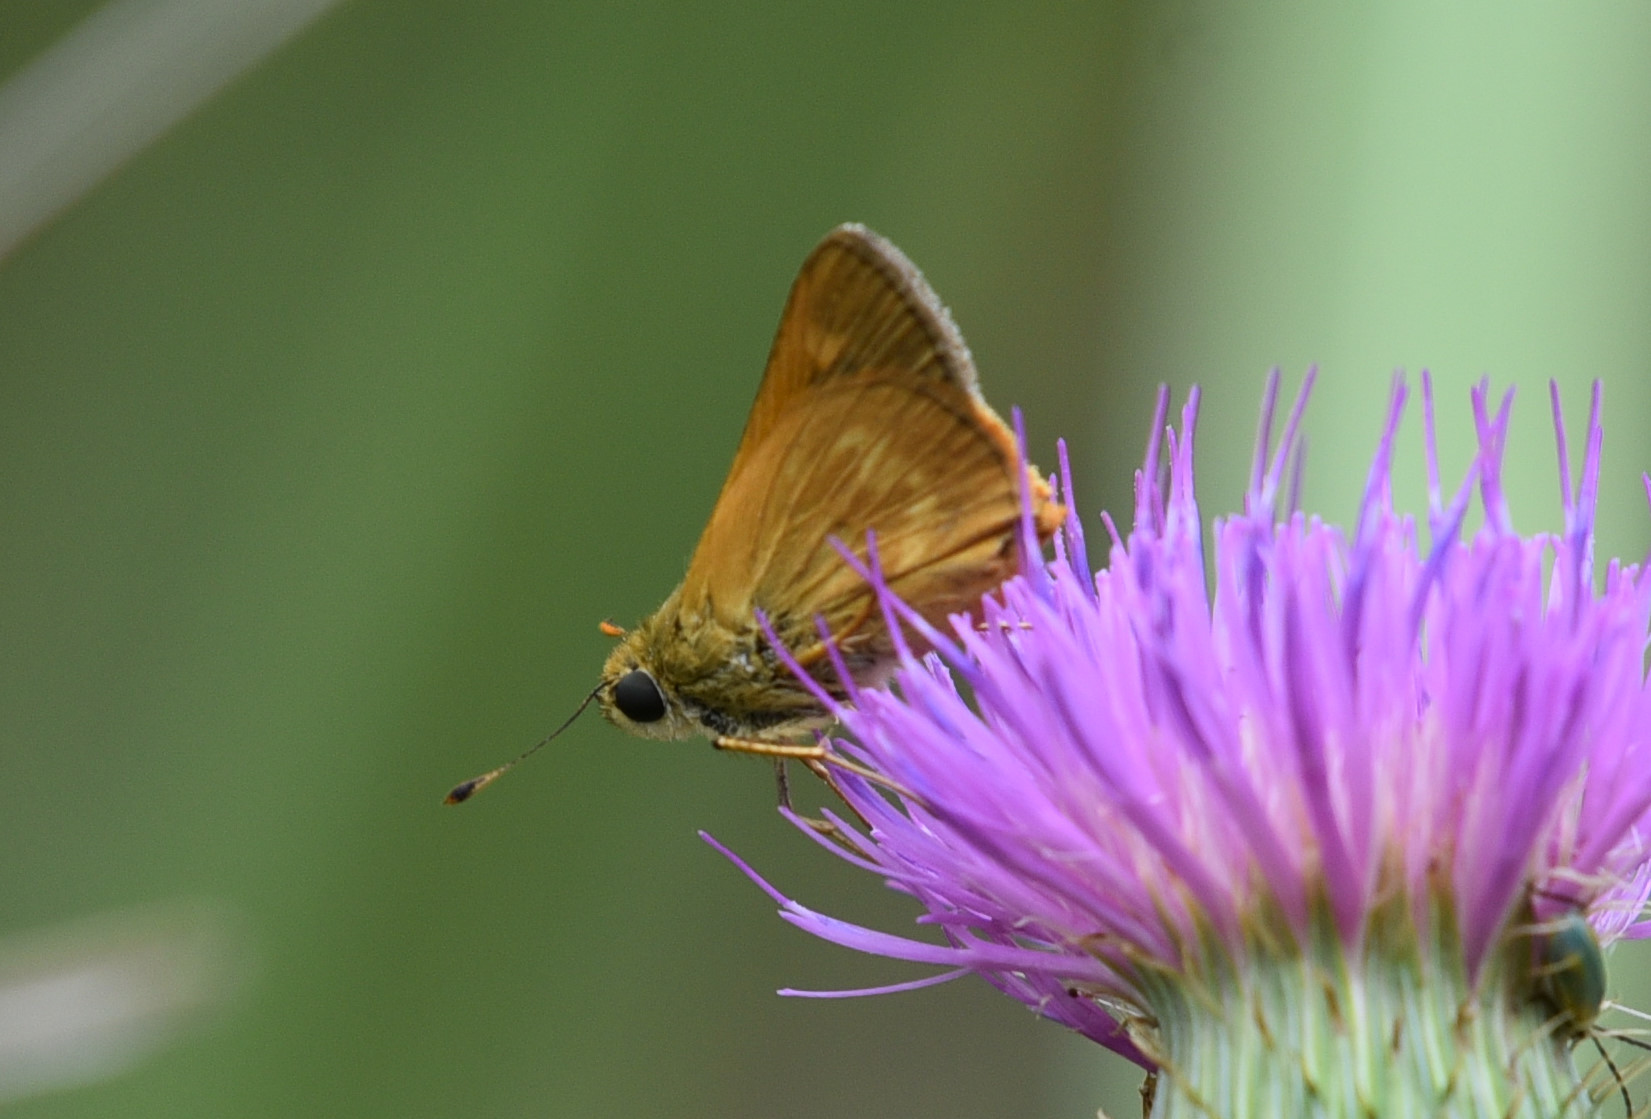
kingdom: Animalia
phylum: Arthropoda
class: Insecta
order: Lepidoptera
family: Hesperiidae
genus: Polites
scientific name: Polites otho
